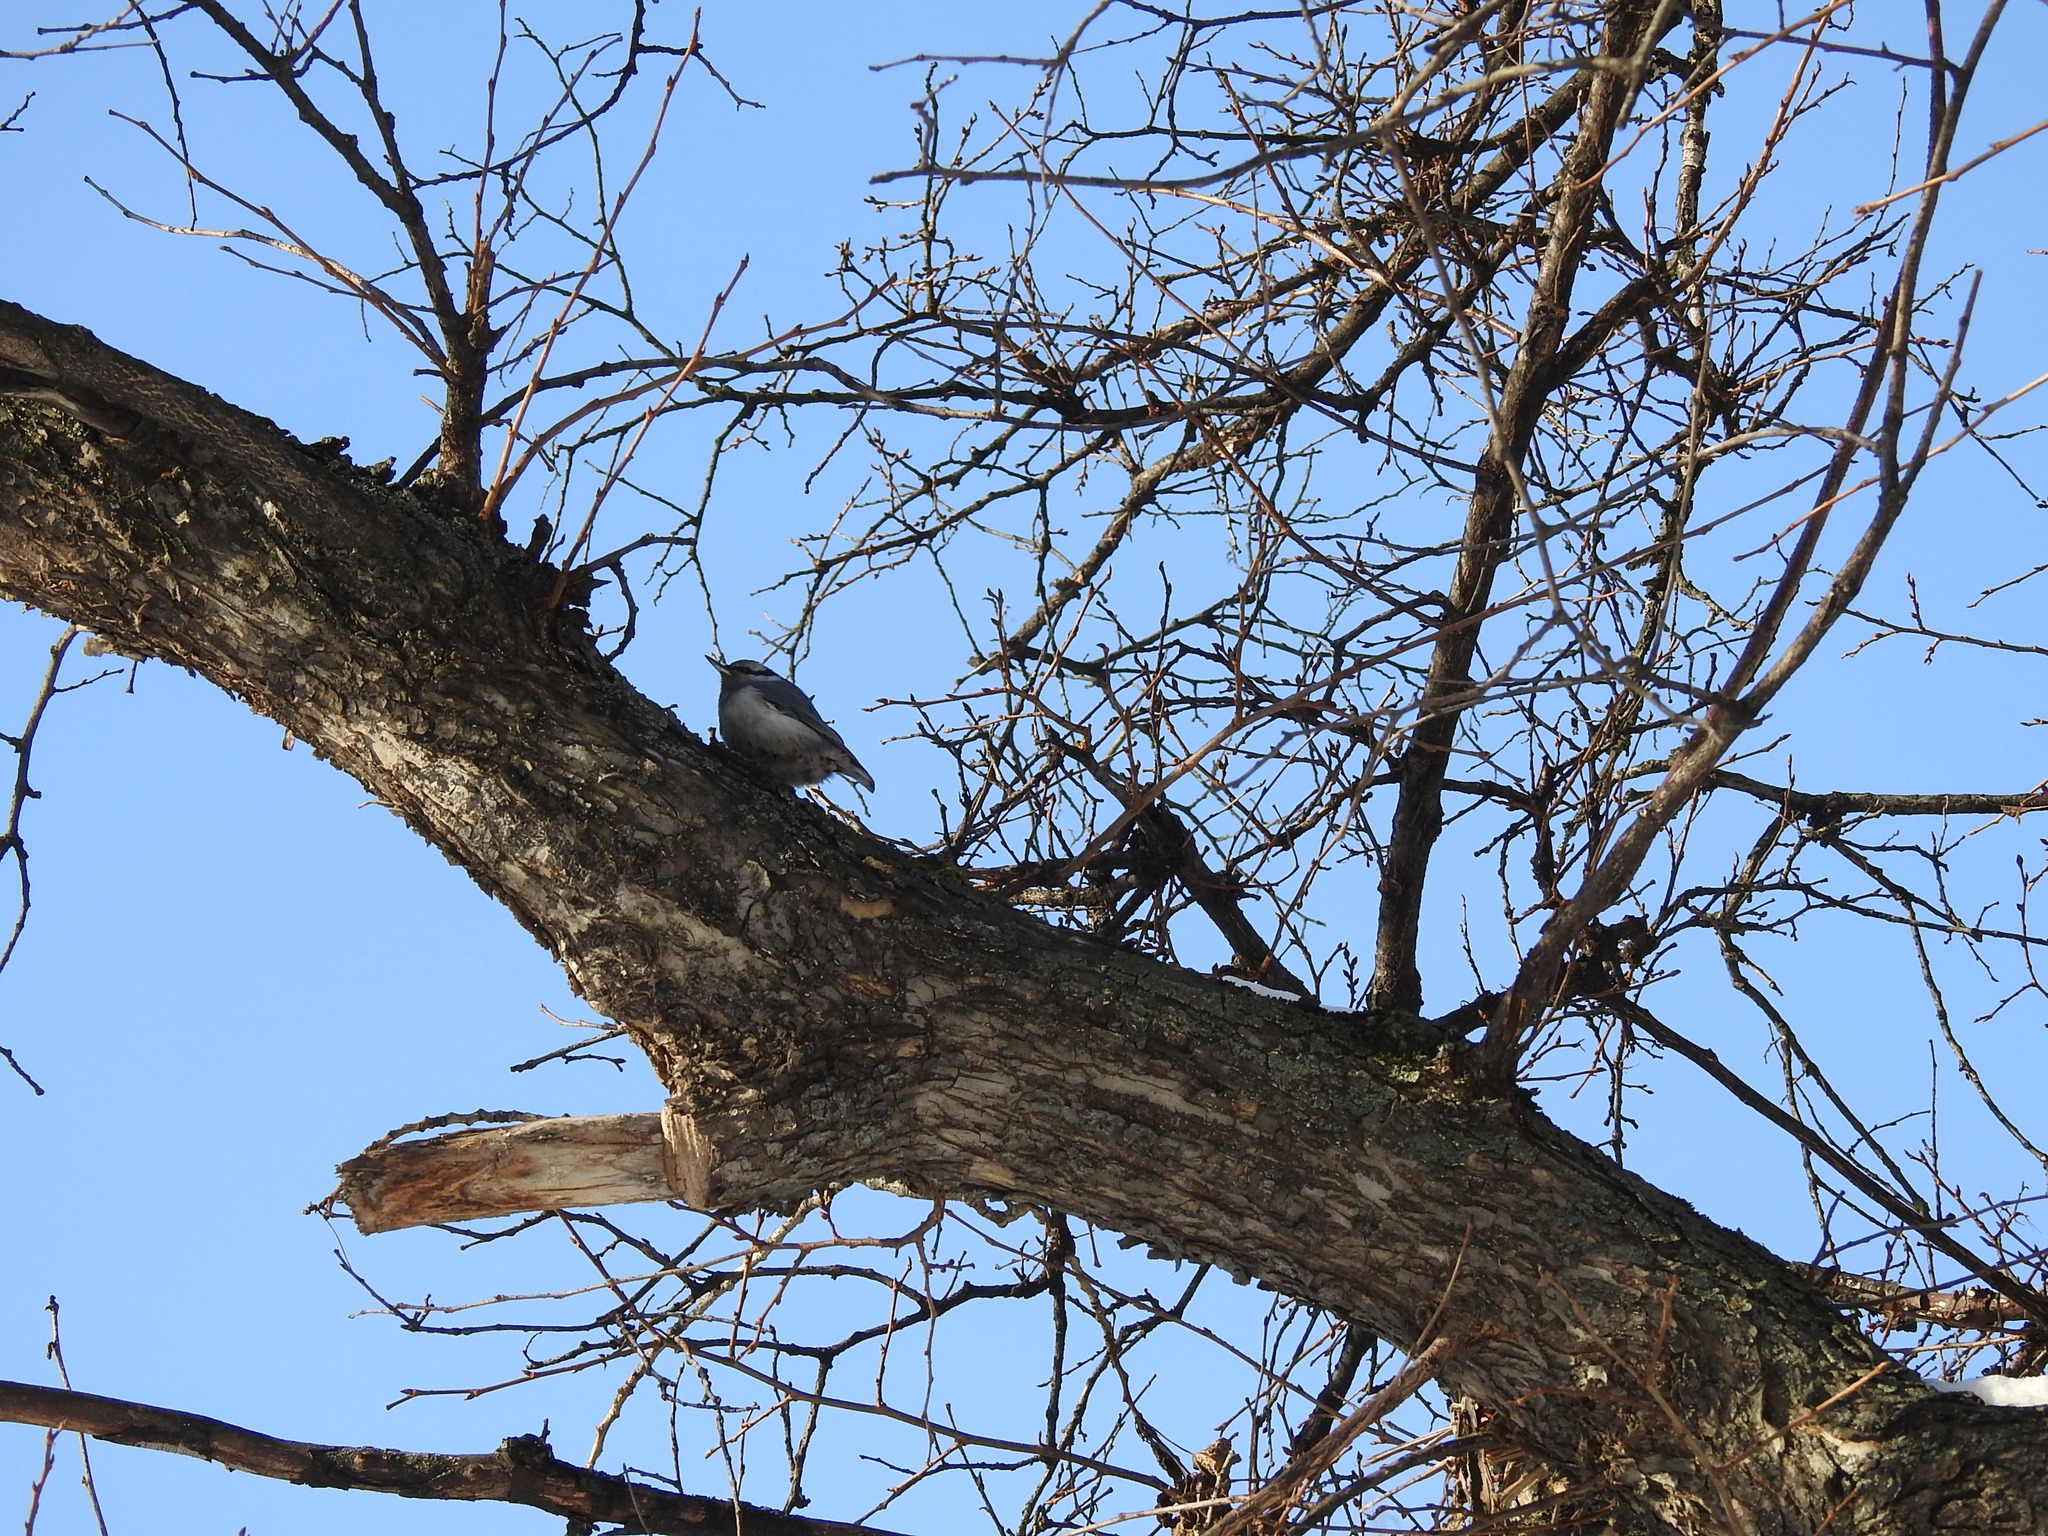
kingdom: Animalia
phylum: Chordata
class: Aves
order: Passeriformes
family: Sittidae
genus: Sitta
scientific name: Sitta europaea
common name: Eurasian nuthatch
